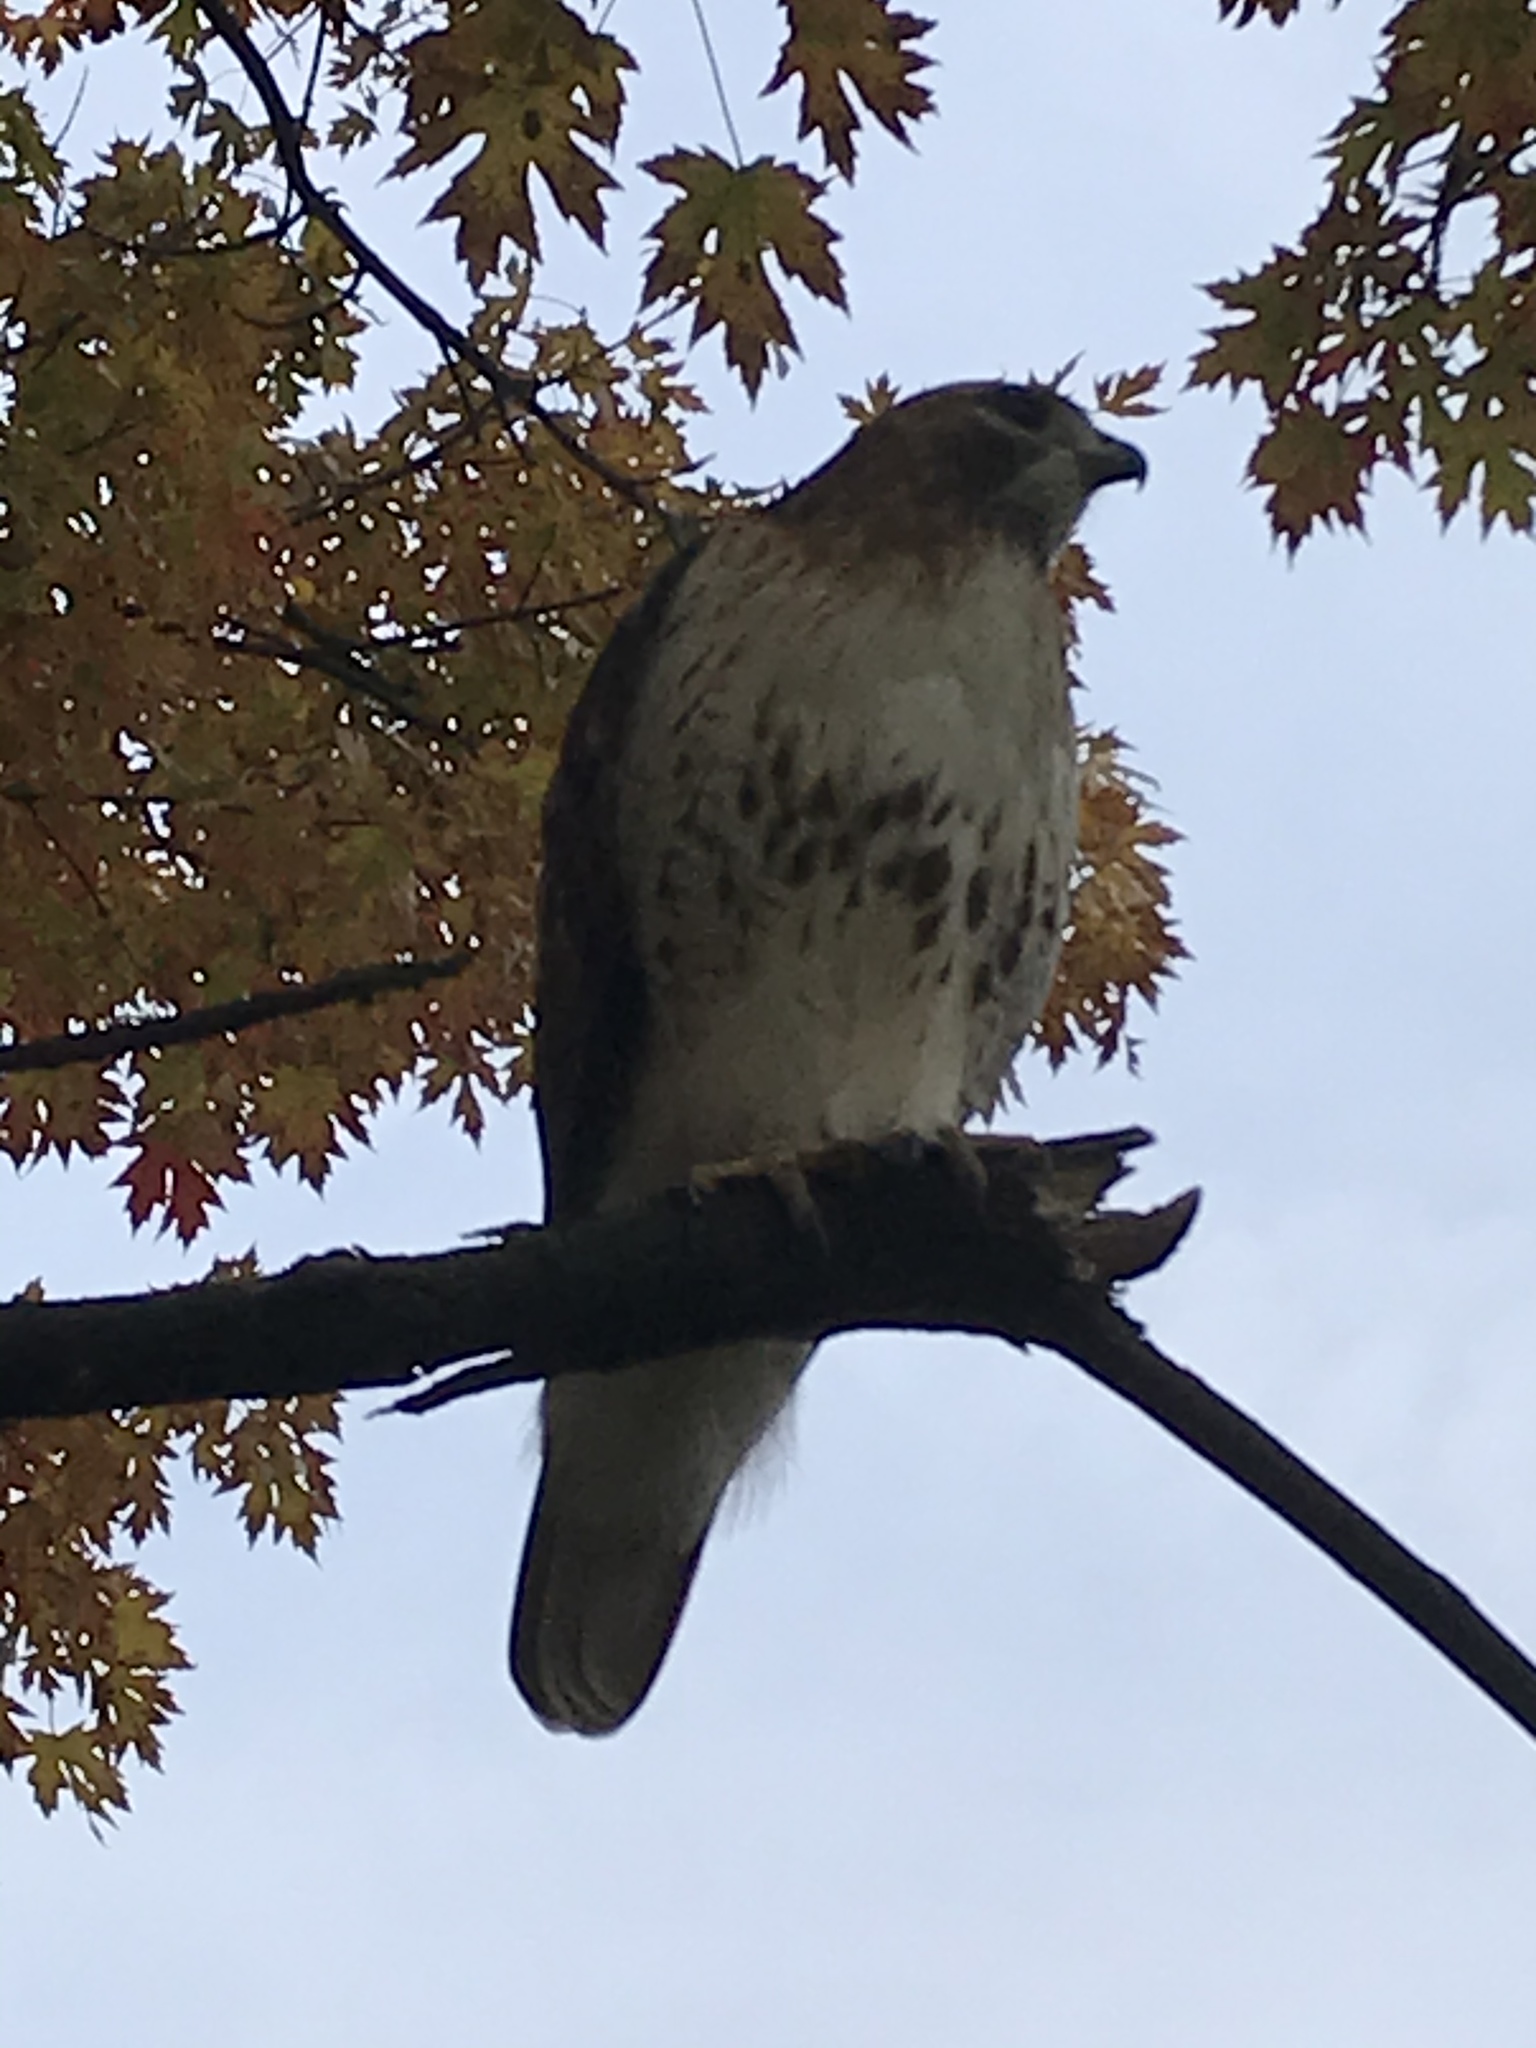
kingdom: Animalia
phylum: Chordata
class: Aves
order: Accipitriformes
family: Accipitridae
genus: Buteo
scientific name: Buteo jamaicensis
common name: Red-tailed hawk
